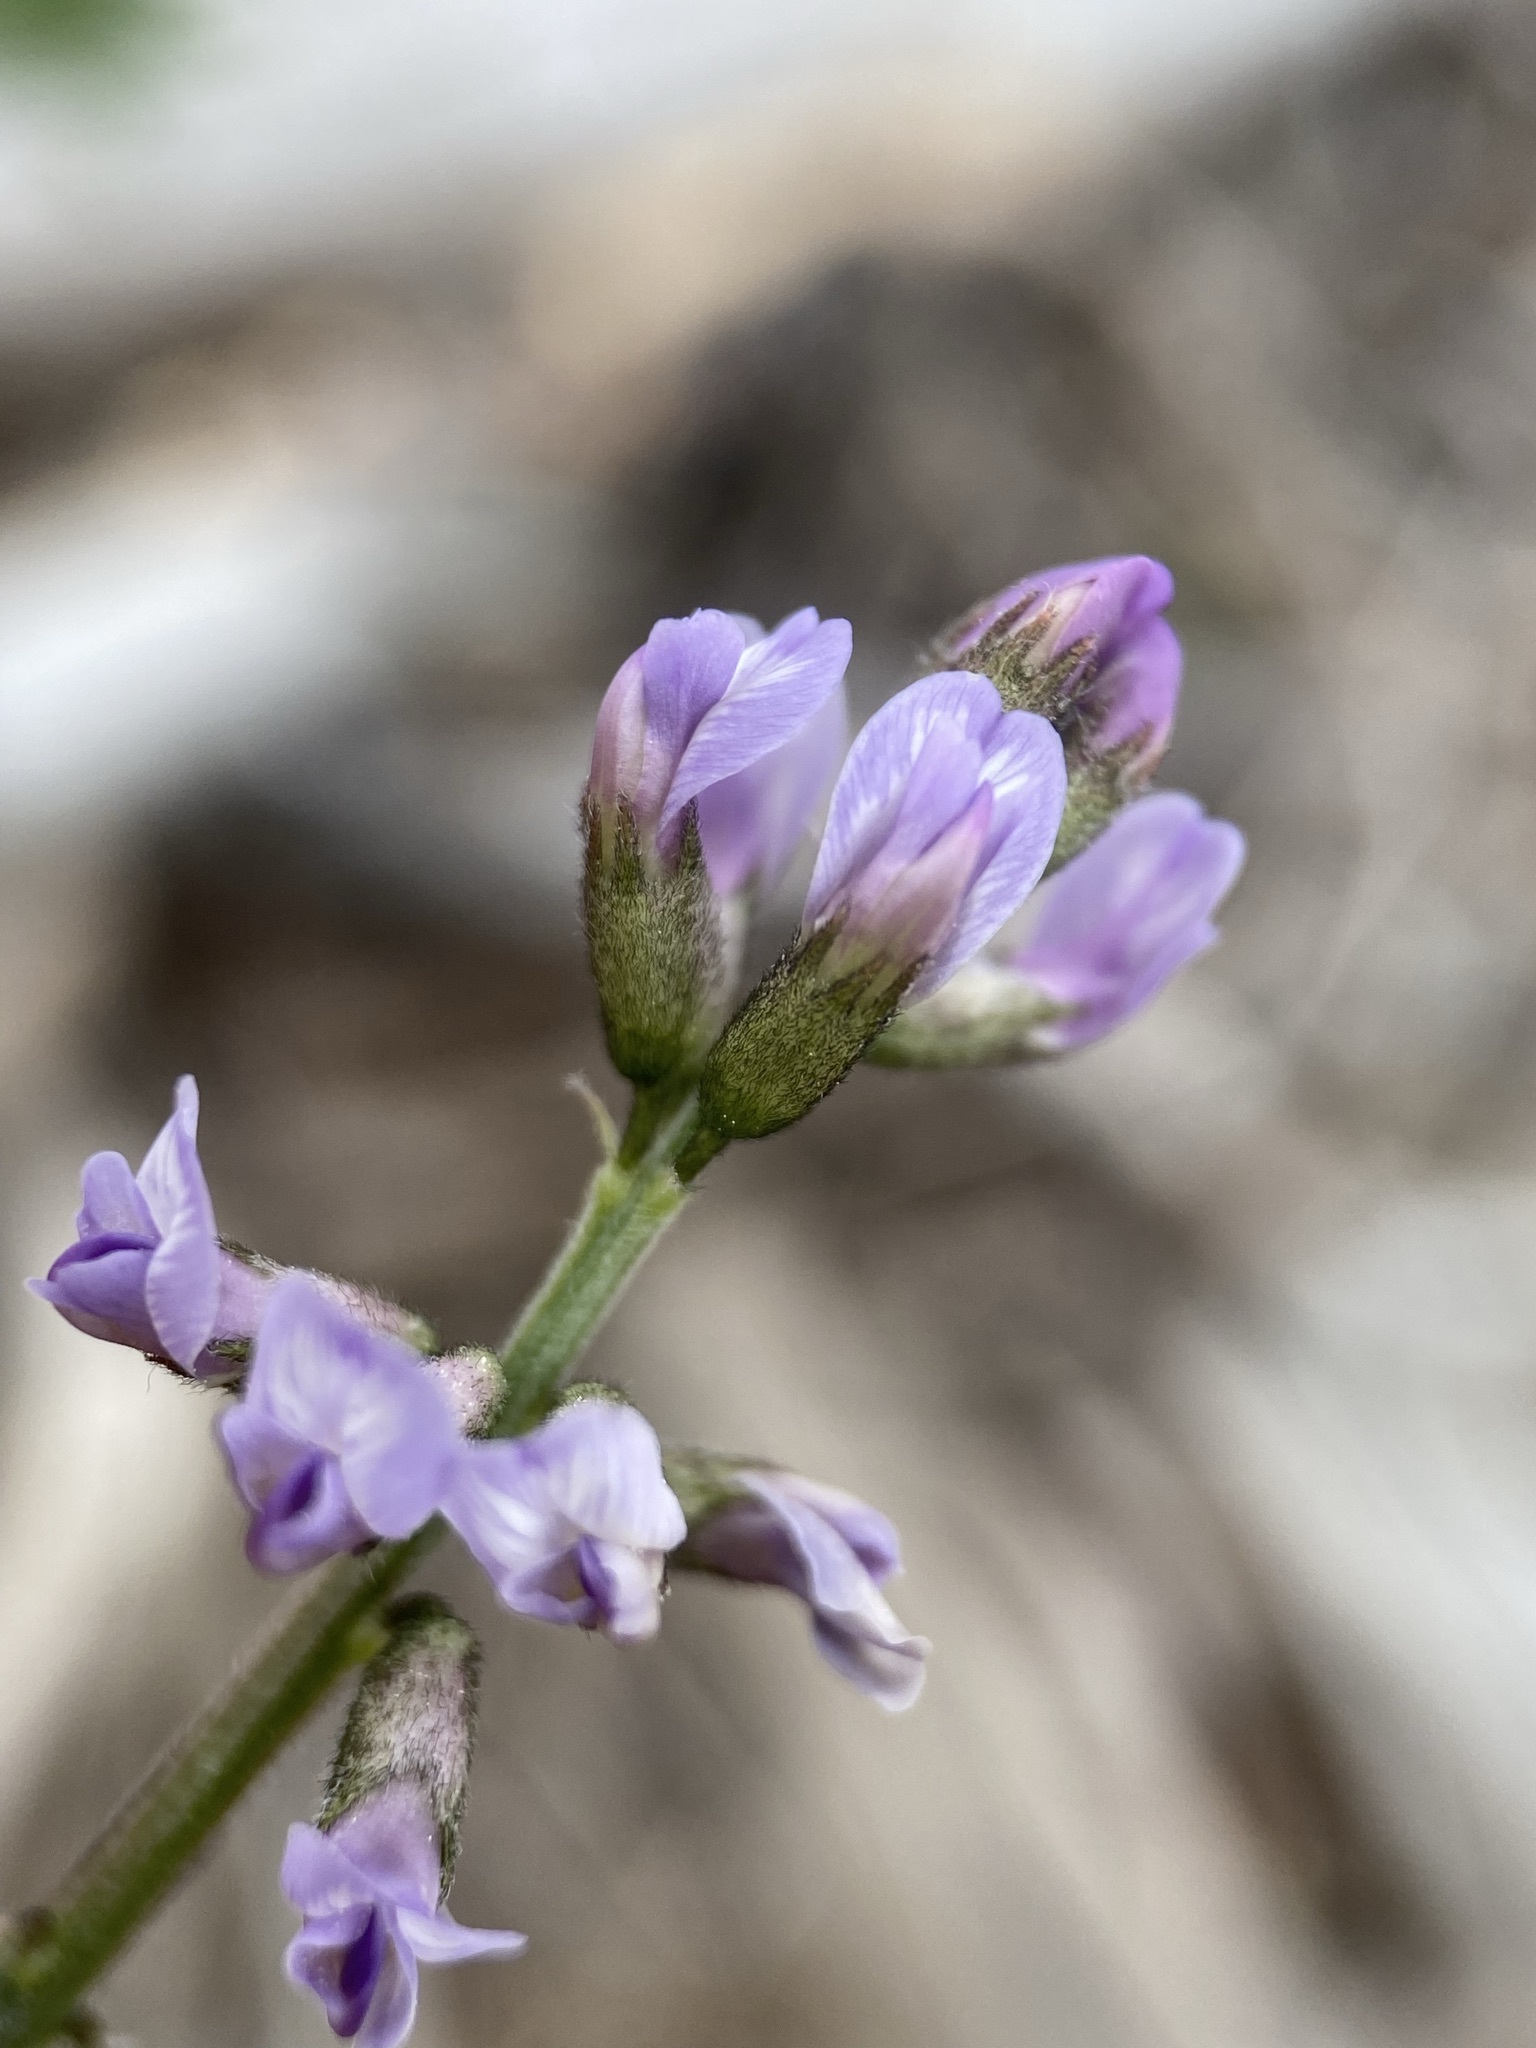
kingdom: Plantae
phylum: Tracheophyta
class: Magnoliopsida
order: Fabales
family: Fabaceae
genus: Astragalus
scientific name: Astragalus eucosmus
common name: Elegant milk-vetch
